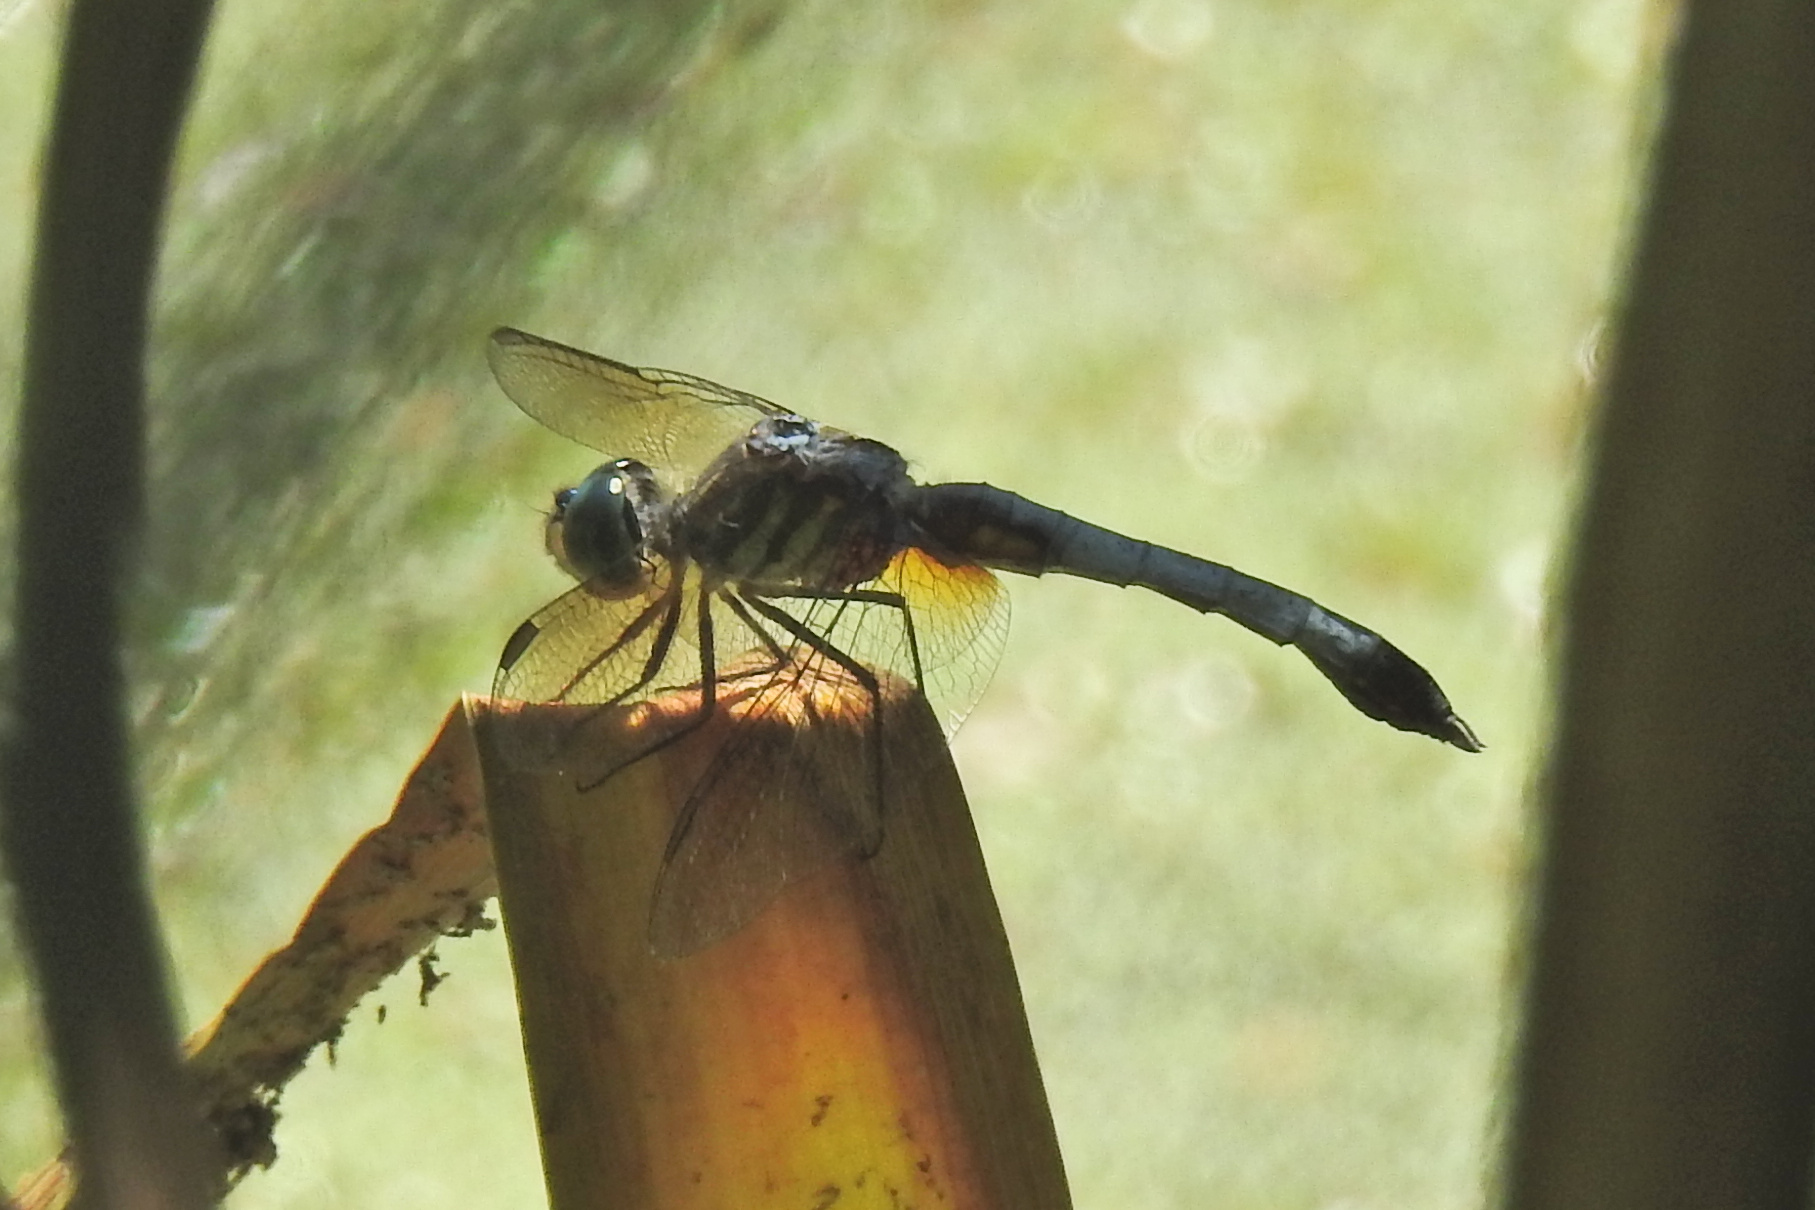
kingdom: Animalia
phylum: Arthropoda
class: Insecta
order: Odonata
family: Libellulidae
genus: Pachydiplax
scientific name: Pachydiplax longipennis
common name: Blue dasher
